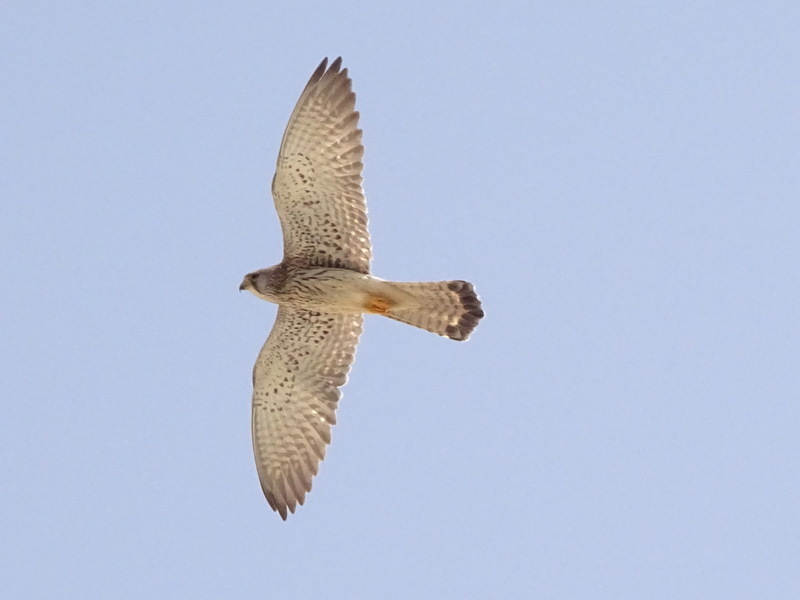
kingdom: Animalia
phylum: Chordata
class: Aves
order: Falconiformes
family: Falconidae
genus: Falco
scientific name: Falco naumanni
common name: Lesser kestrel
